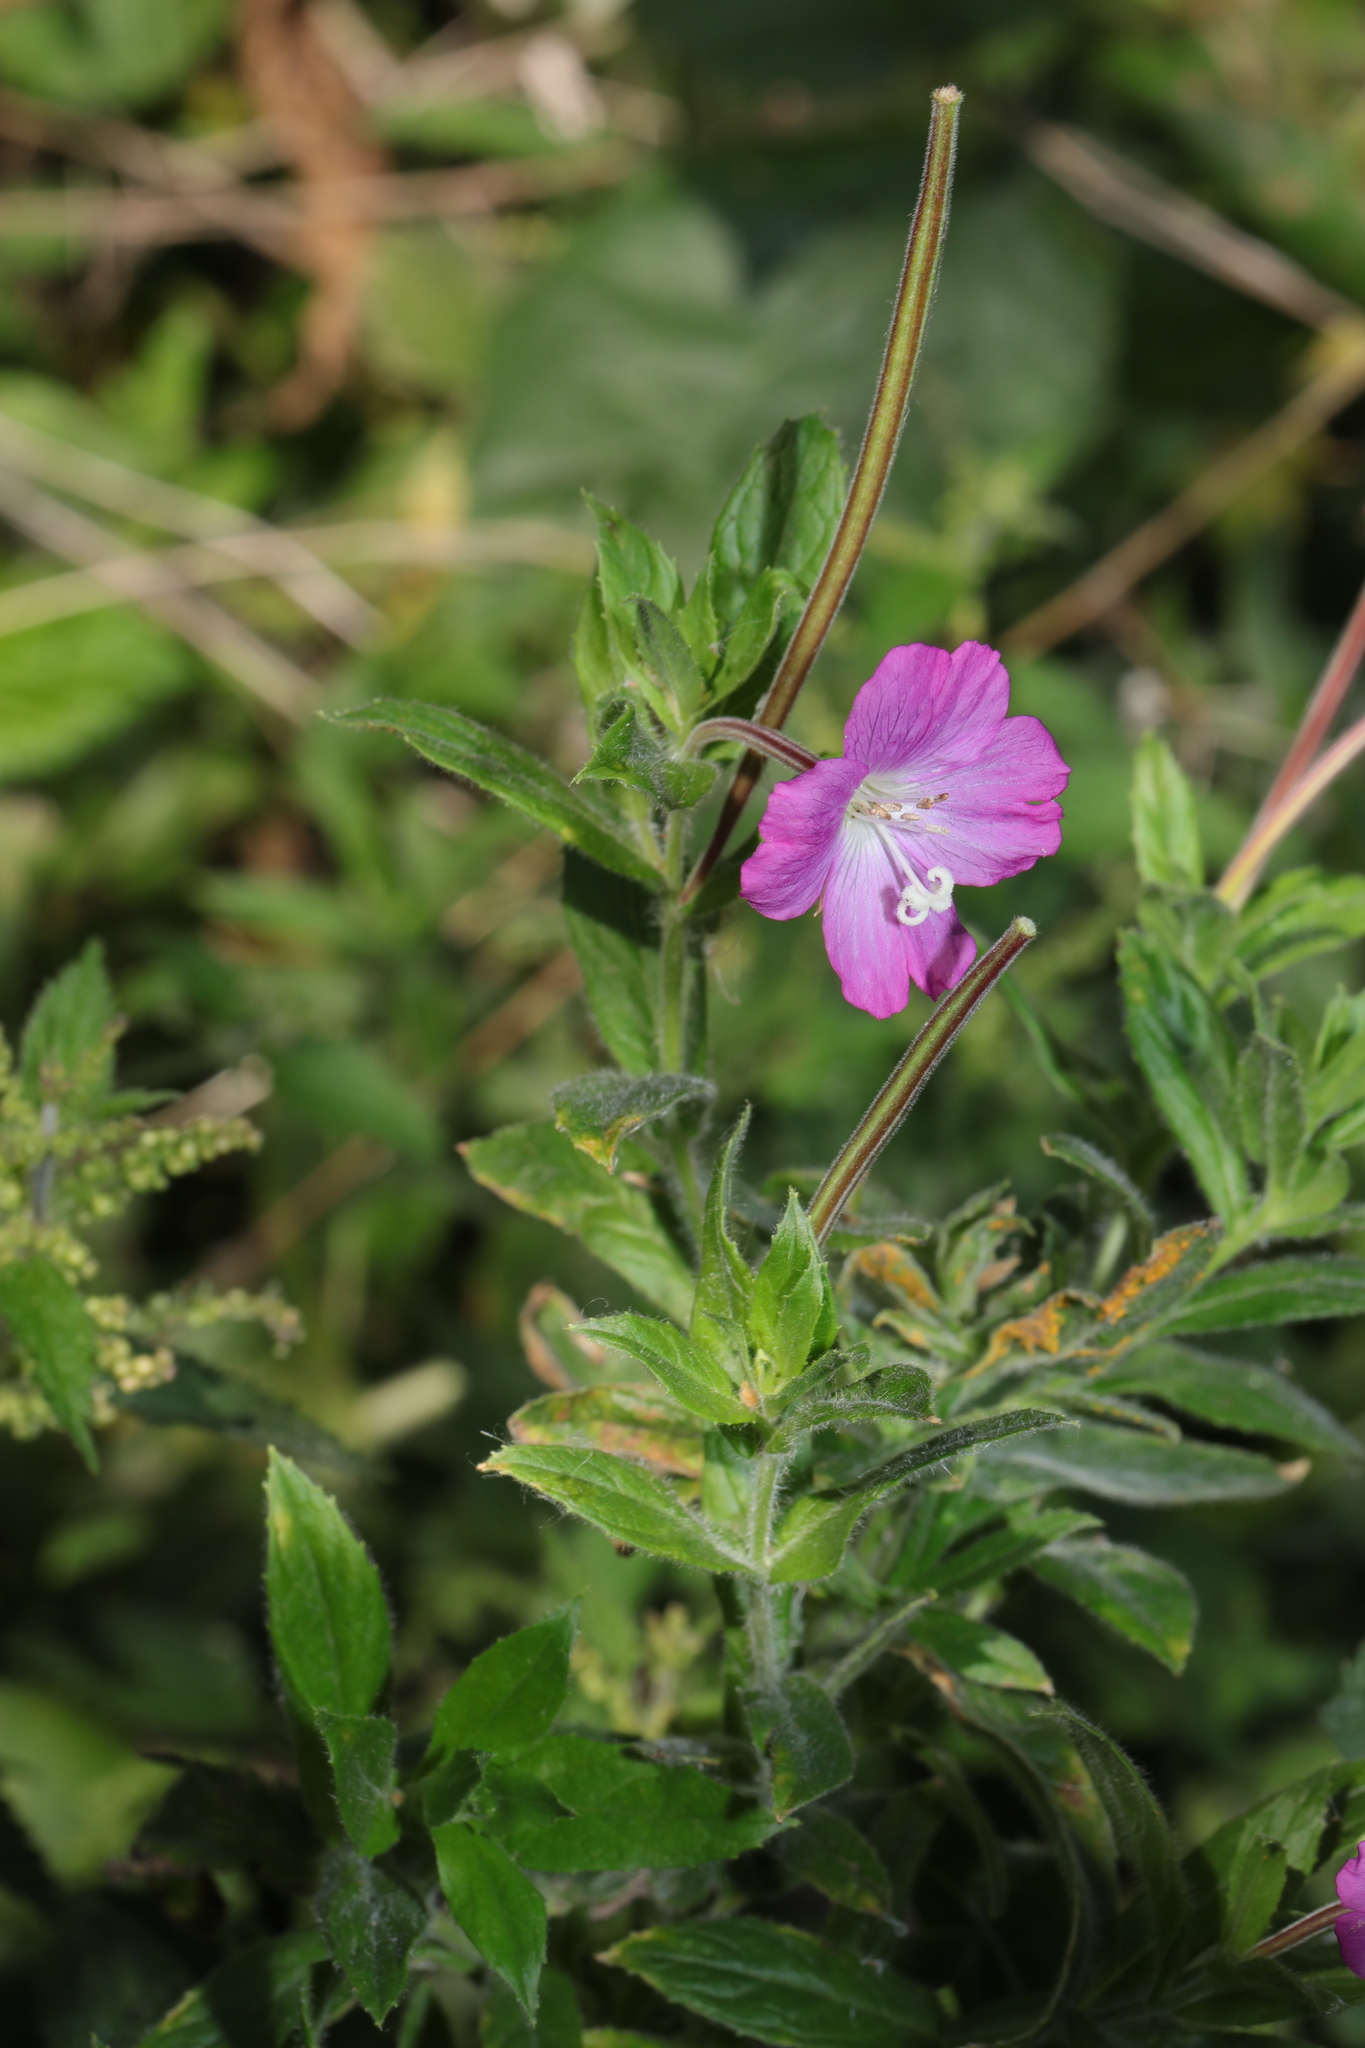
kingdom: Plantae
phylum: Tracheophyta
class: Magnoliopsida
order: Myrtales
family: Onagraceae
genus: Epilobium
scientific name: Epilobium hirsutum
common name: Great willowherb
